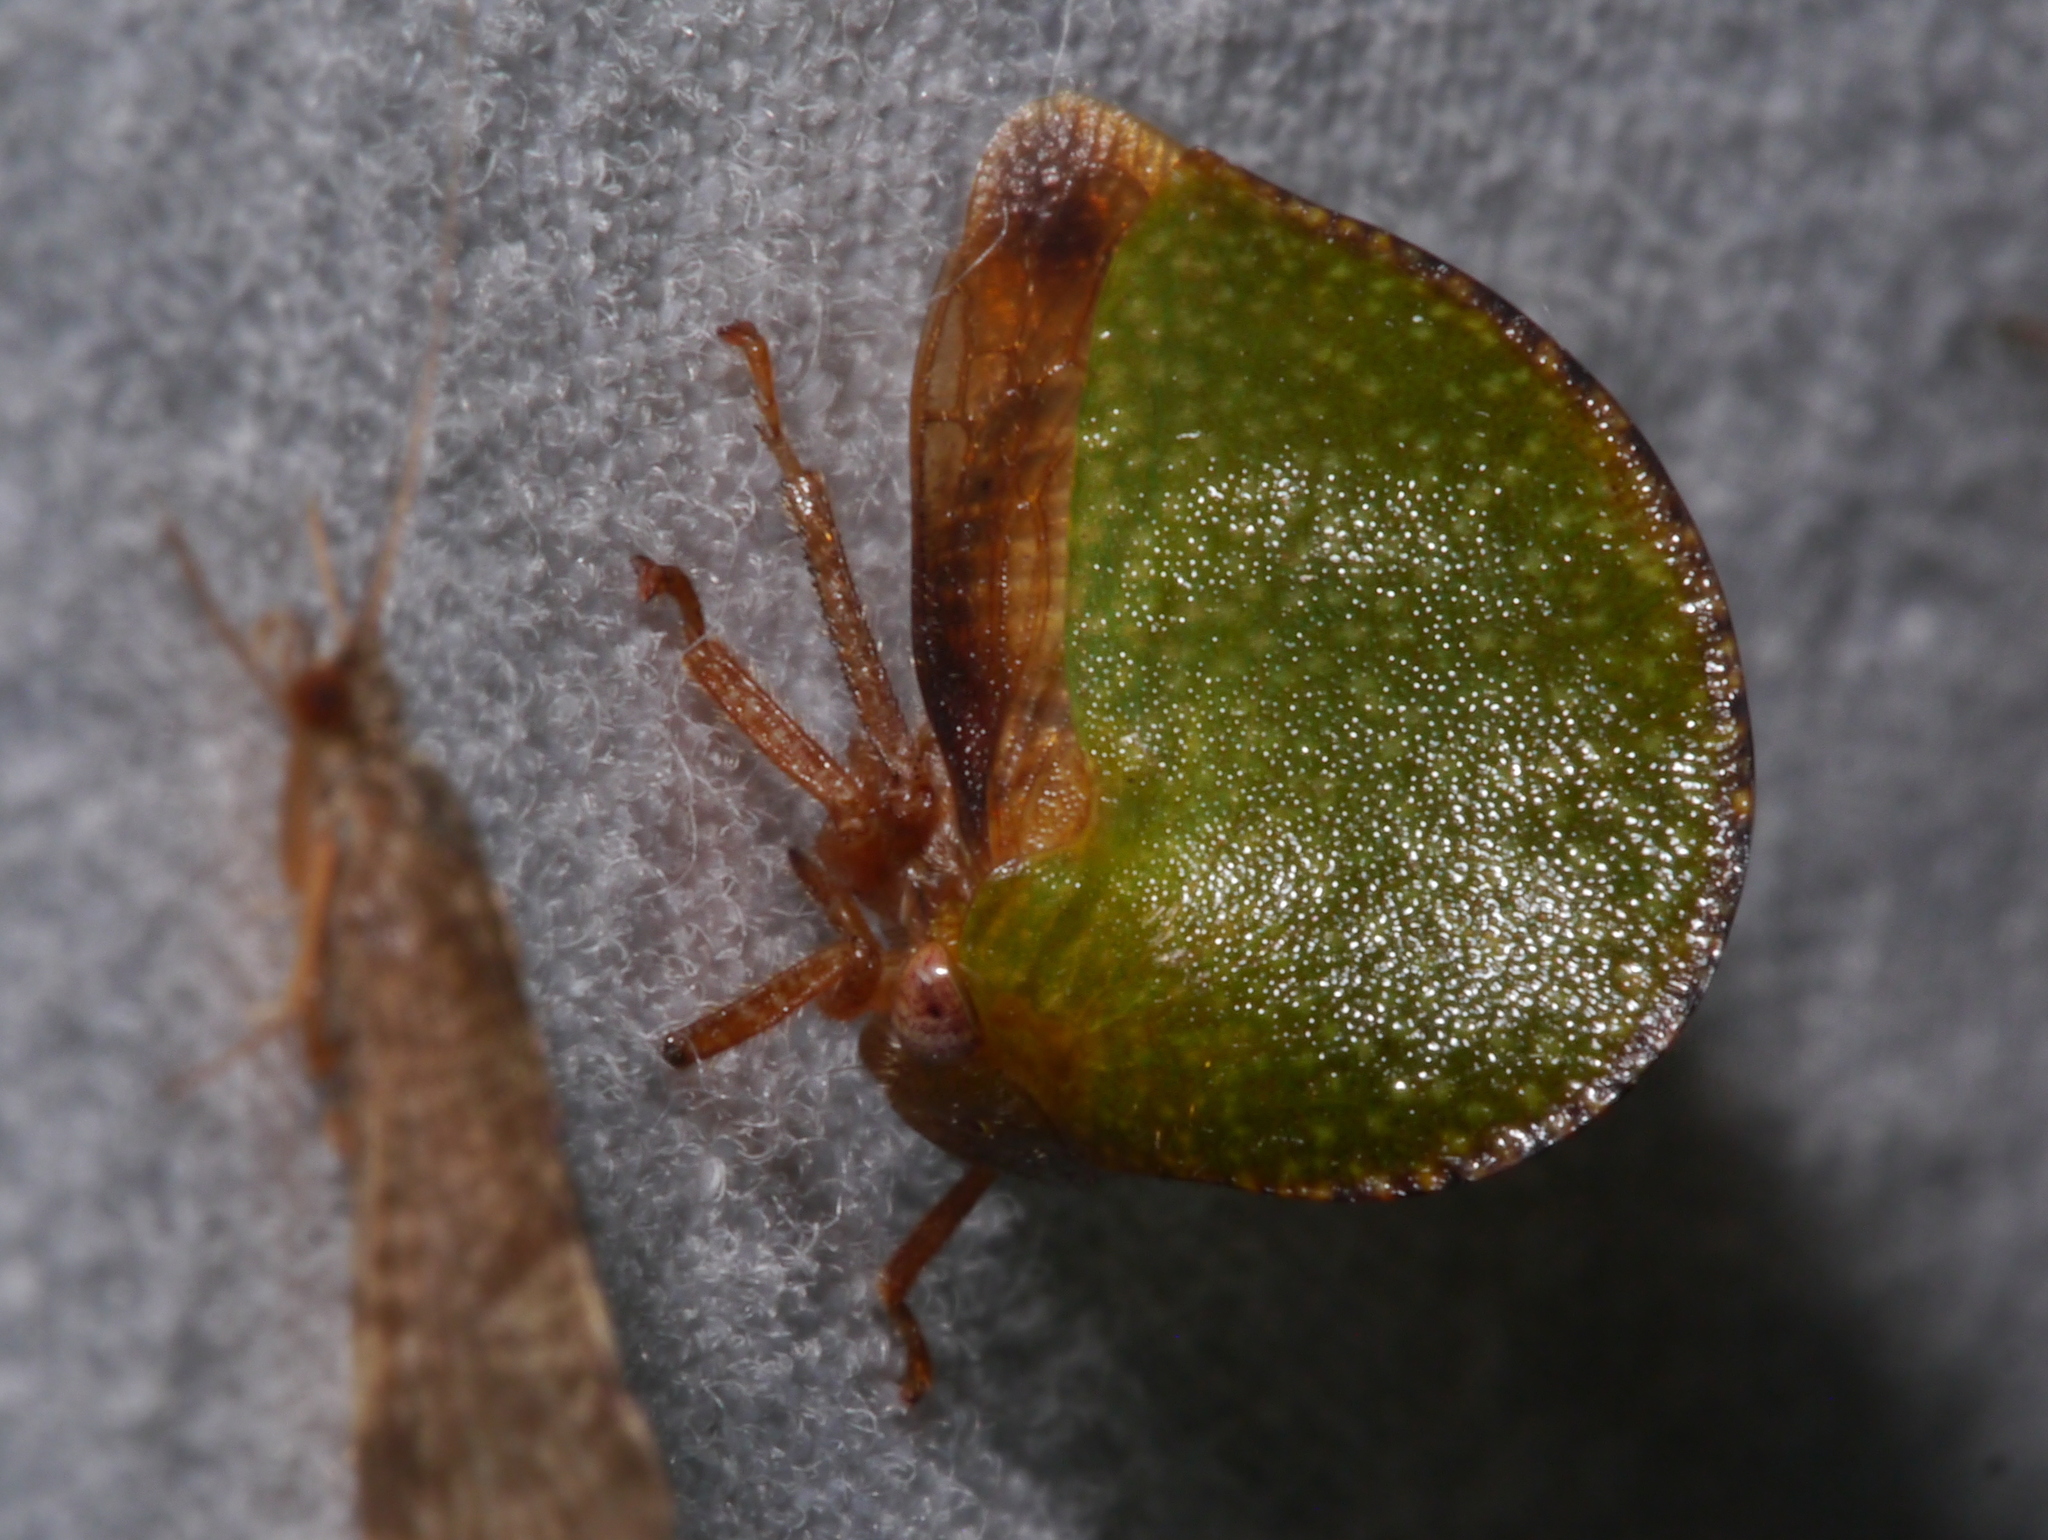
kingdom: Animalia
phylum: Arthropoda
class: Insecta
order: Hemiptera
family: Membracidae
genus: Archasia
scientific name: Archasia auriculata
